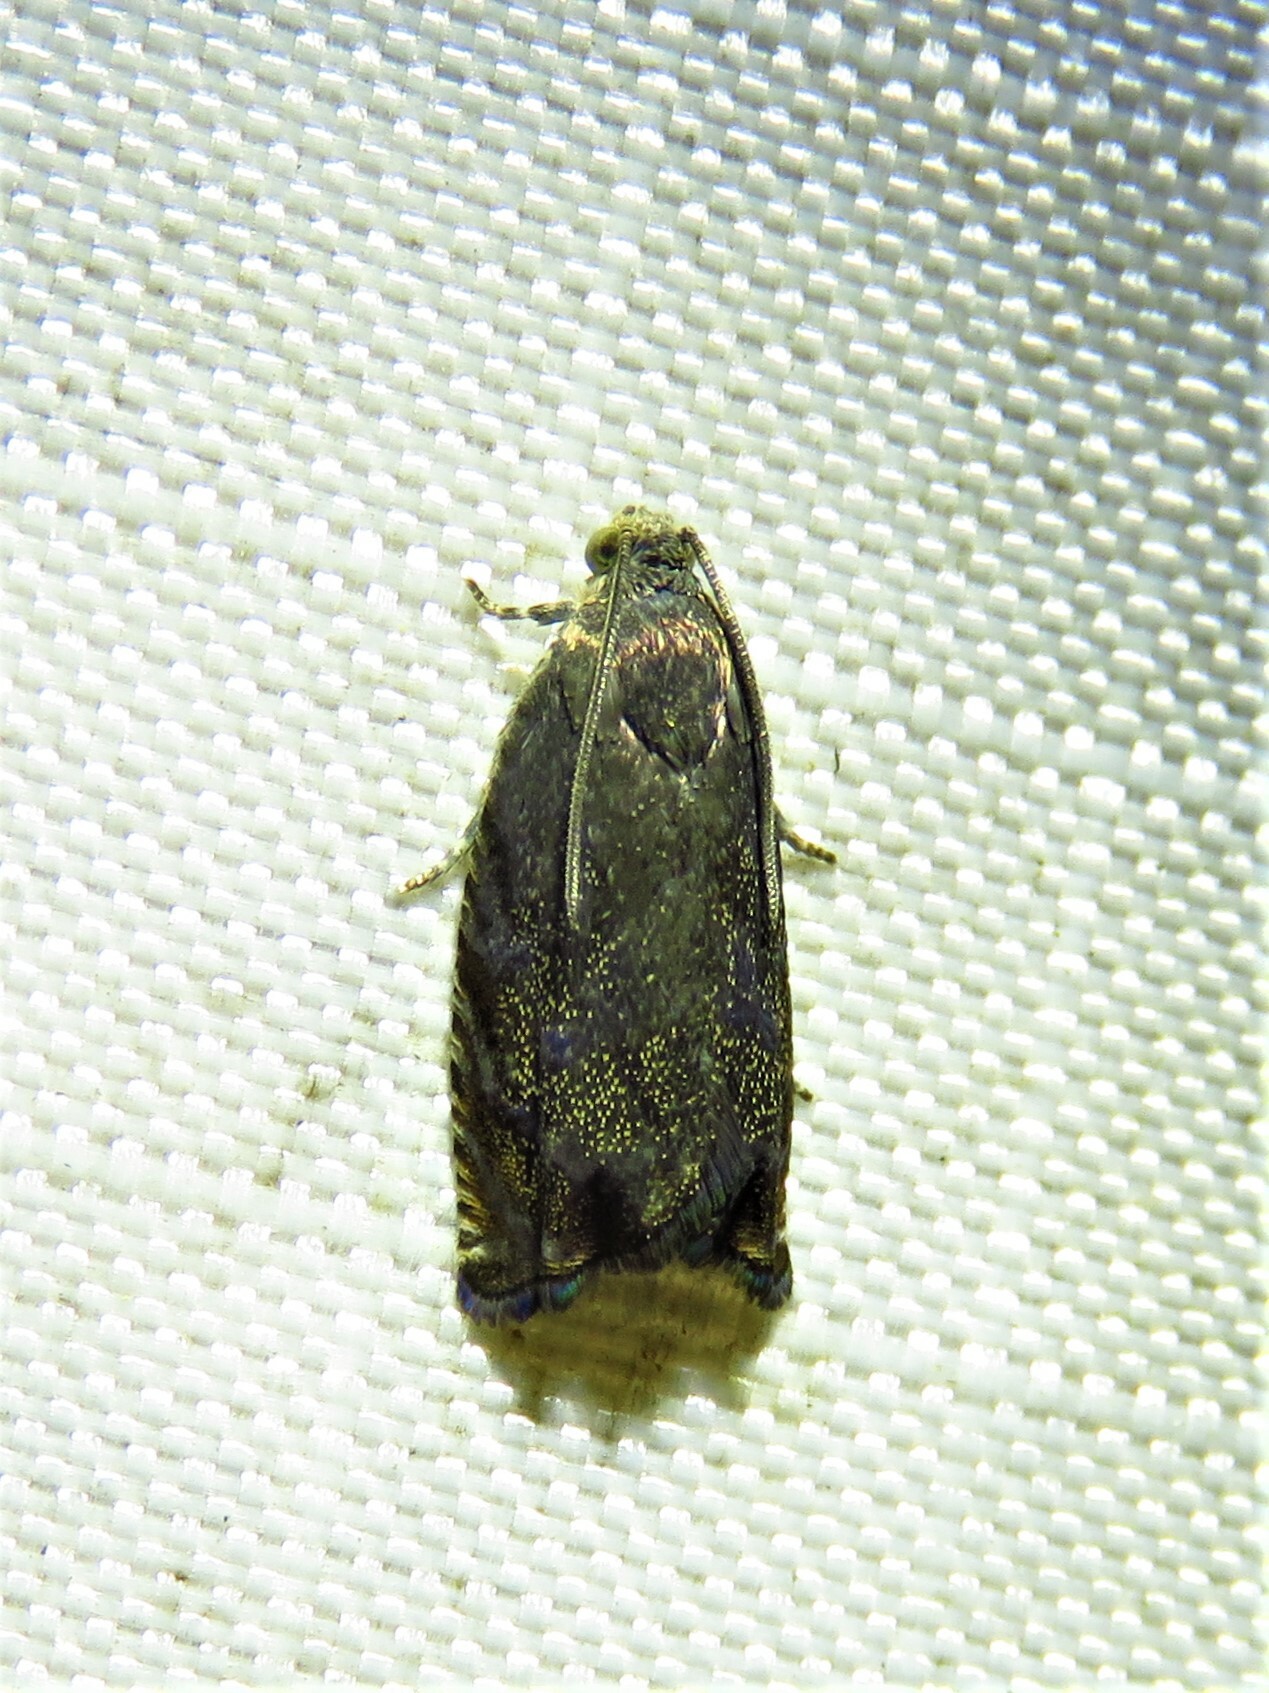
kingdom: Animalia
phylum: Arthropoda
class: Insecta
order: Lepidoptera
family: Tortricidae
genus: Cydia
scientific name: Cydia caryana
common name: Hickory shuckworm moth
